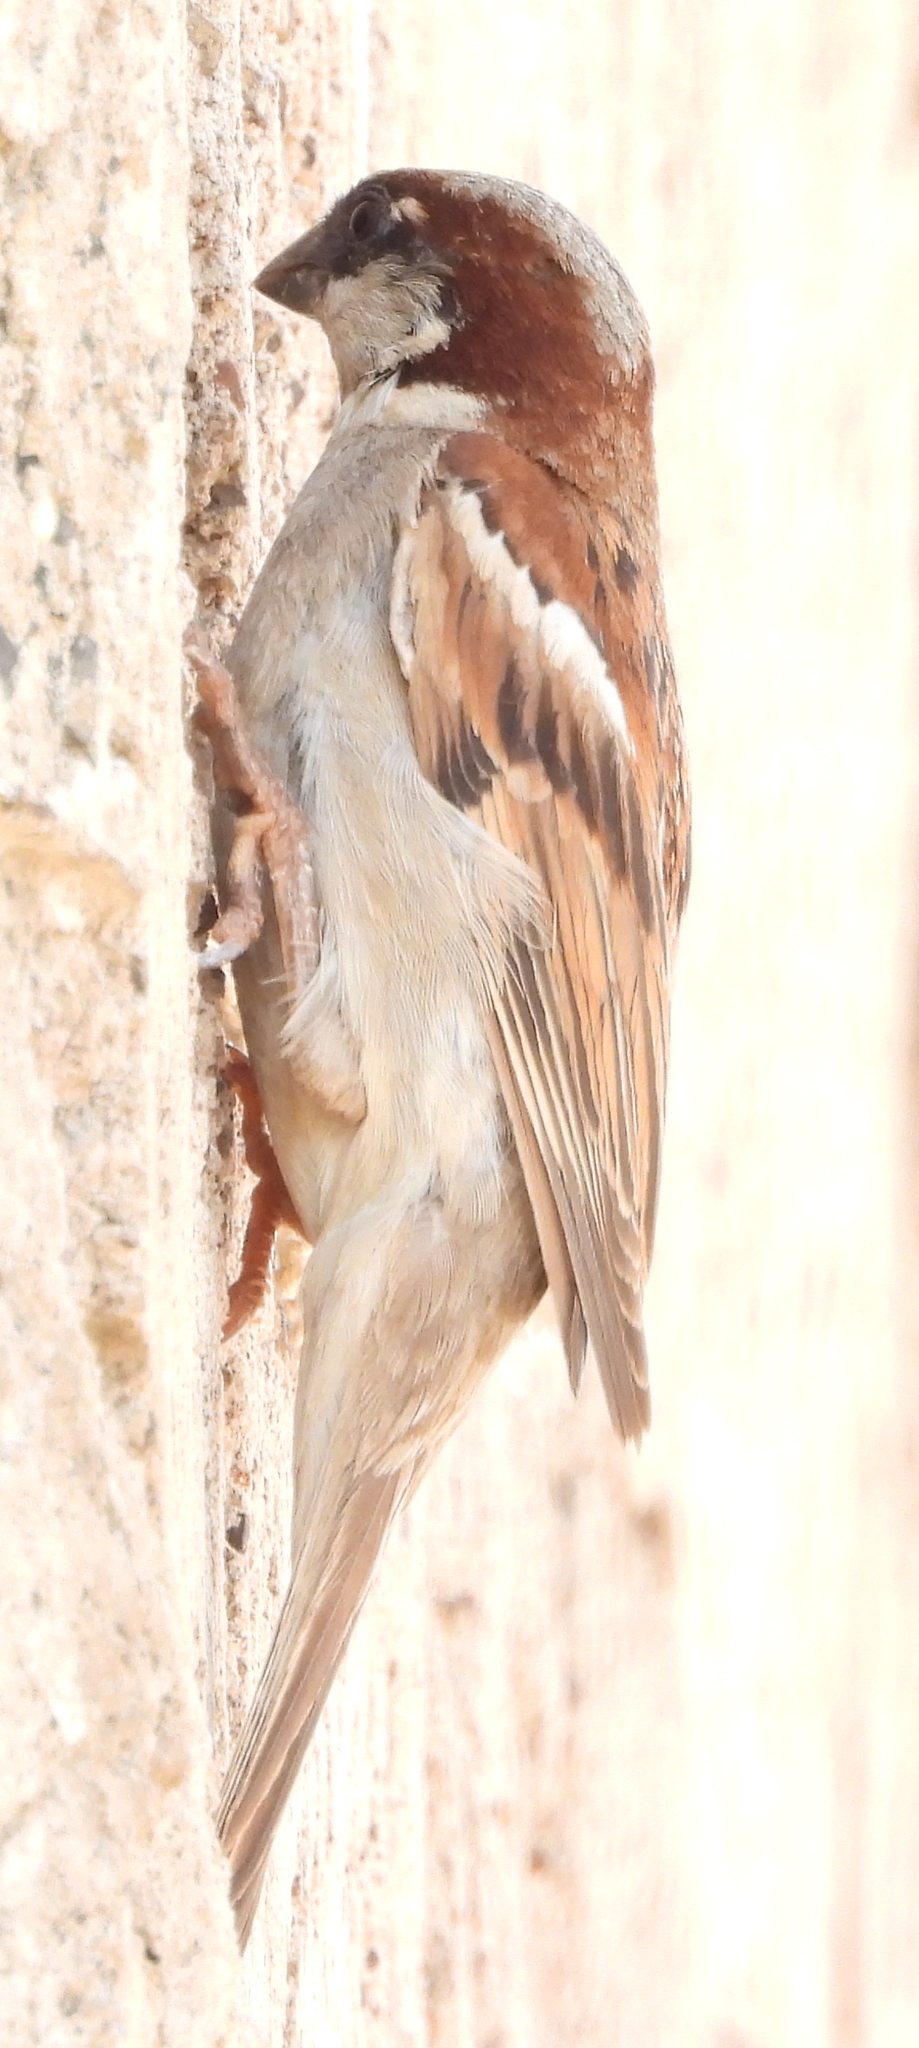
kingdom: Animalia
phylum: Chordata
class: Aves
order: Passeriformes
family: Passeridae
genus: Passer
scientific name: Passer domesticus
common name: House sparrow
